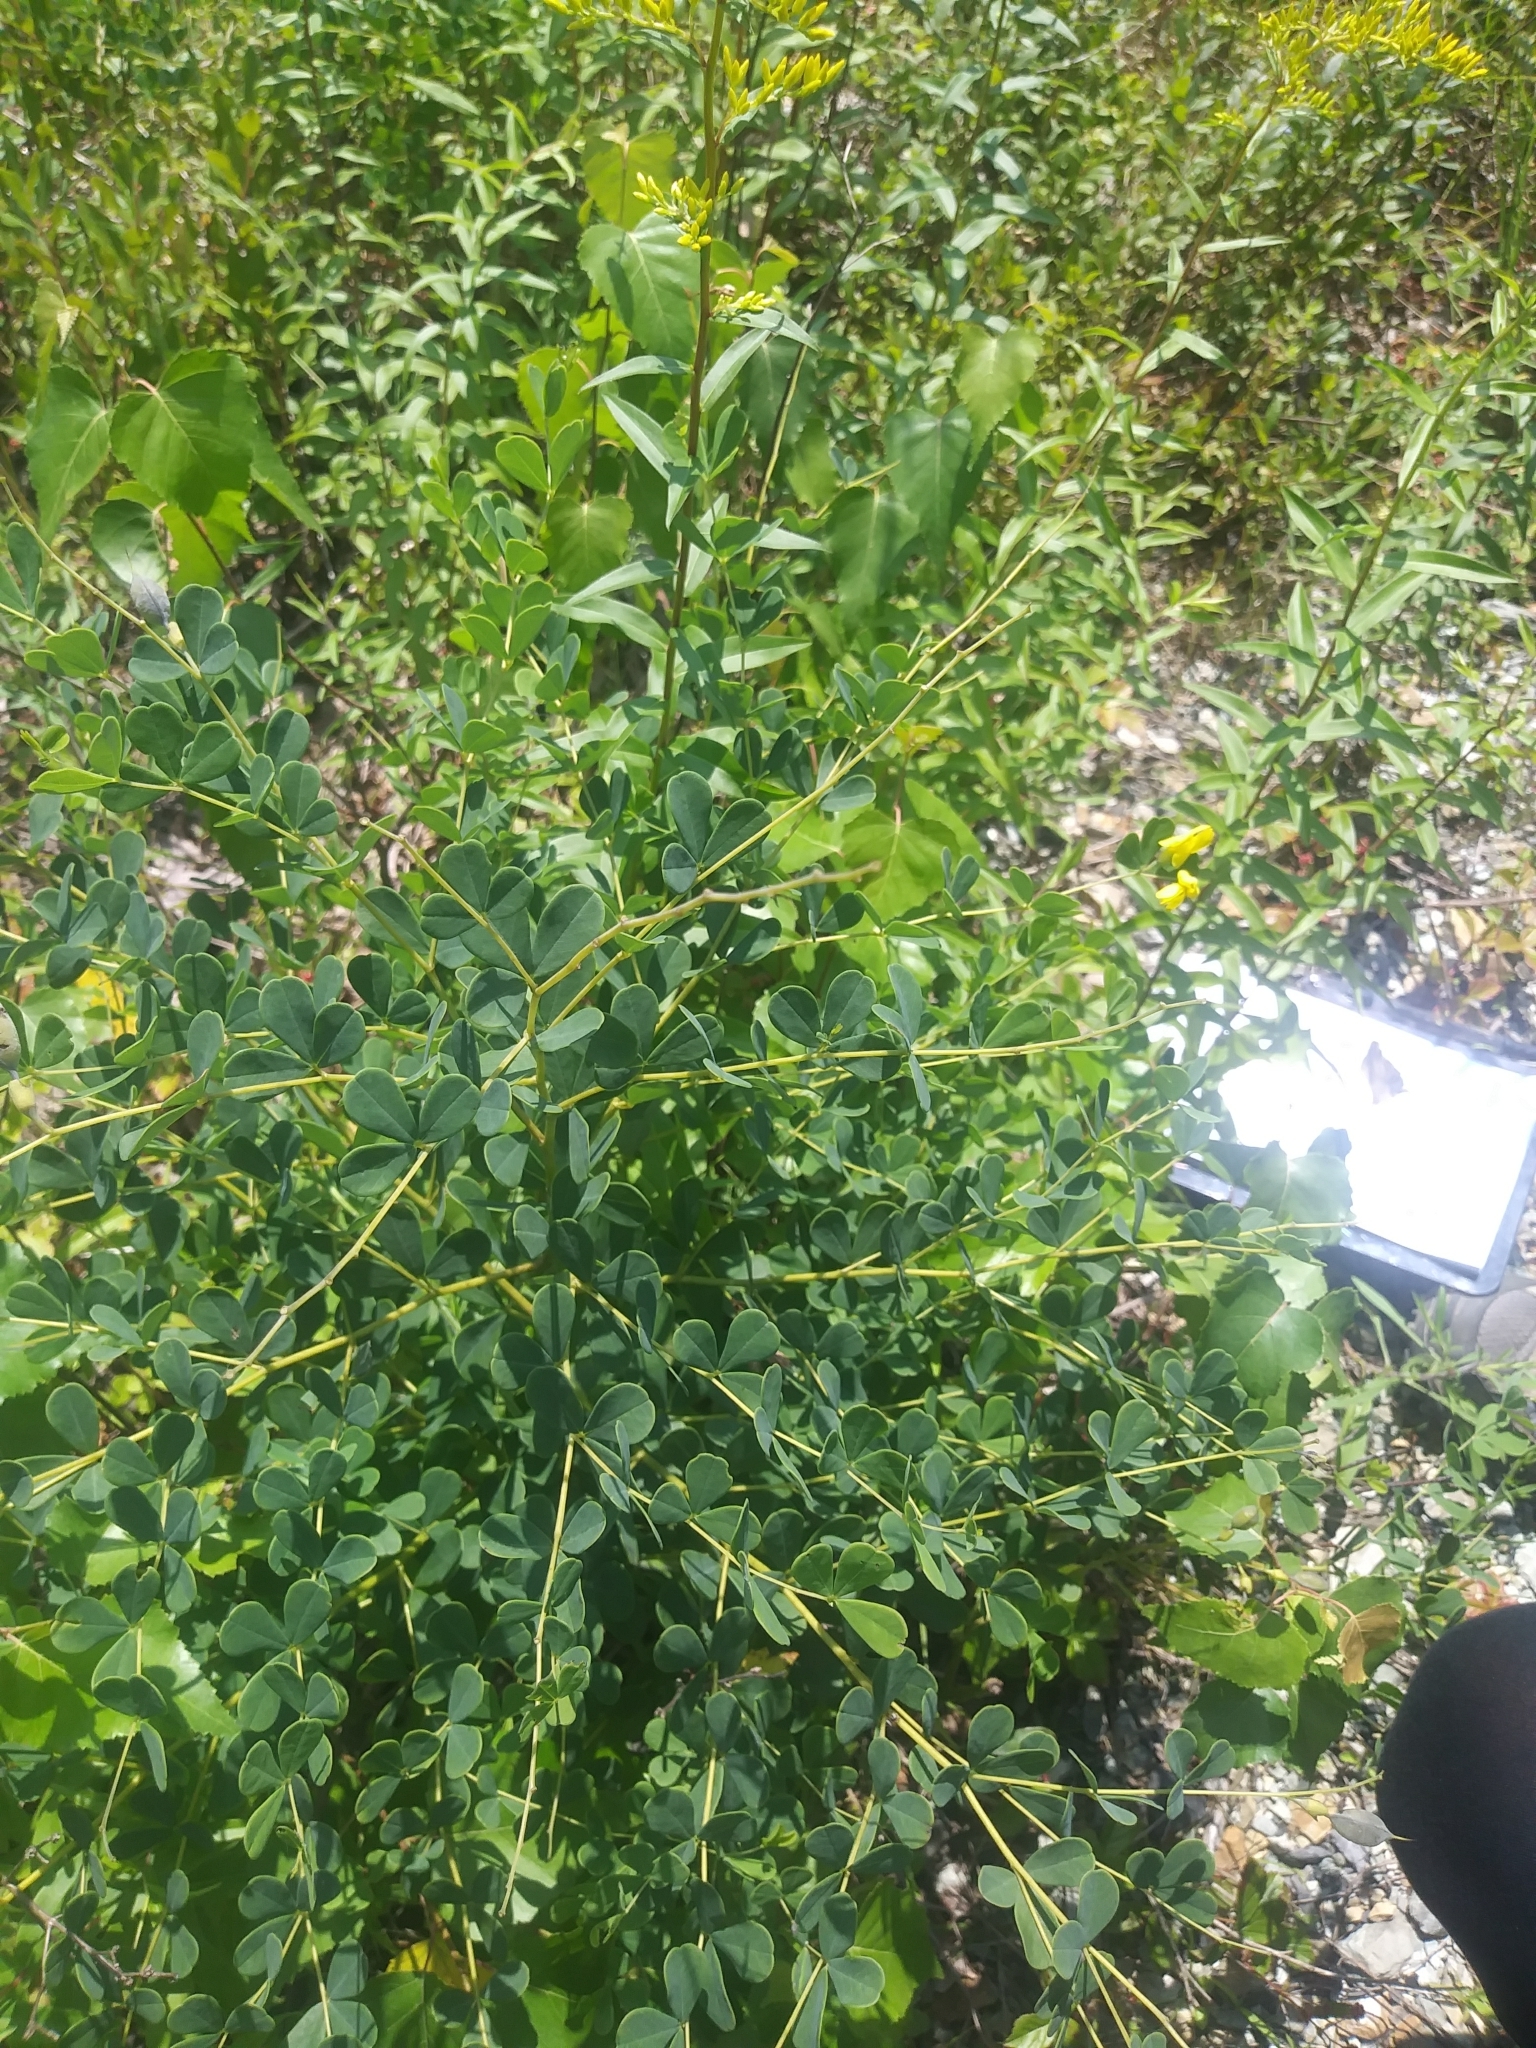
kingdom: Plantae
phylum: Tracheophyta
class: Magnoliopsida
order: Fabales
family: Fabaceae
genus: Baptisia
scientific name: Baptisia tinctoria
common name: Wild indigo
